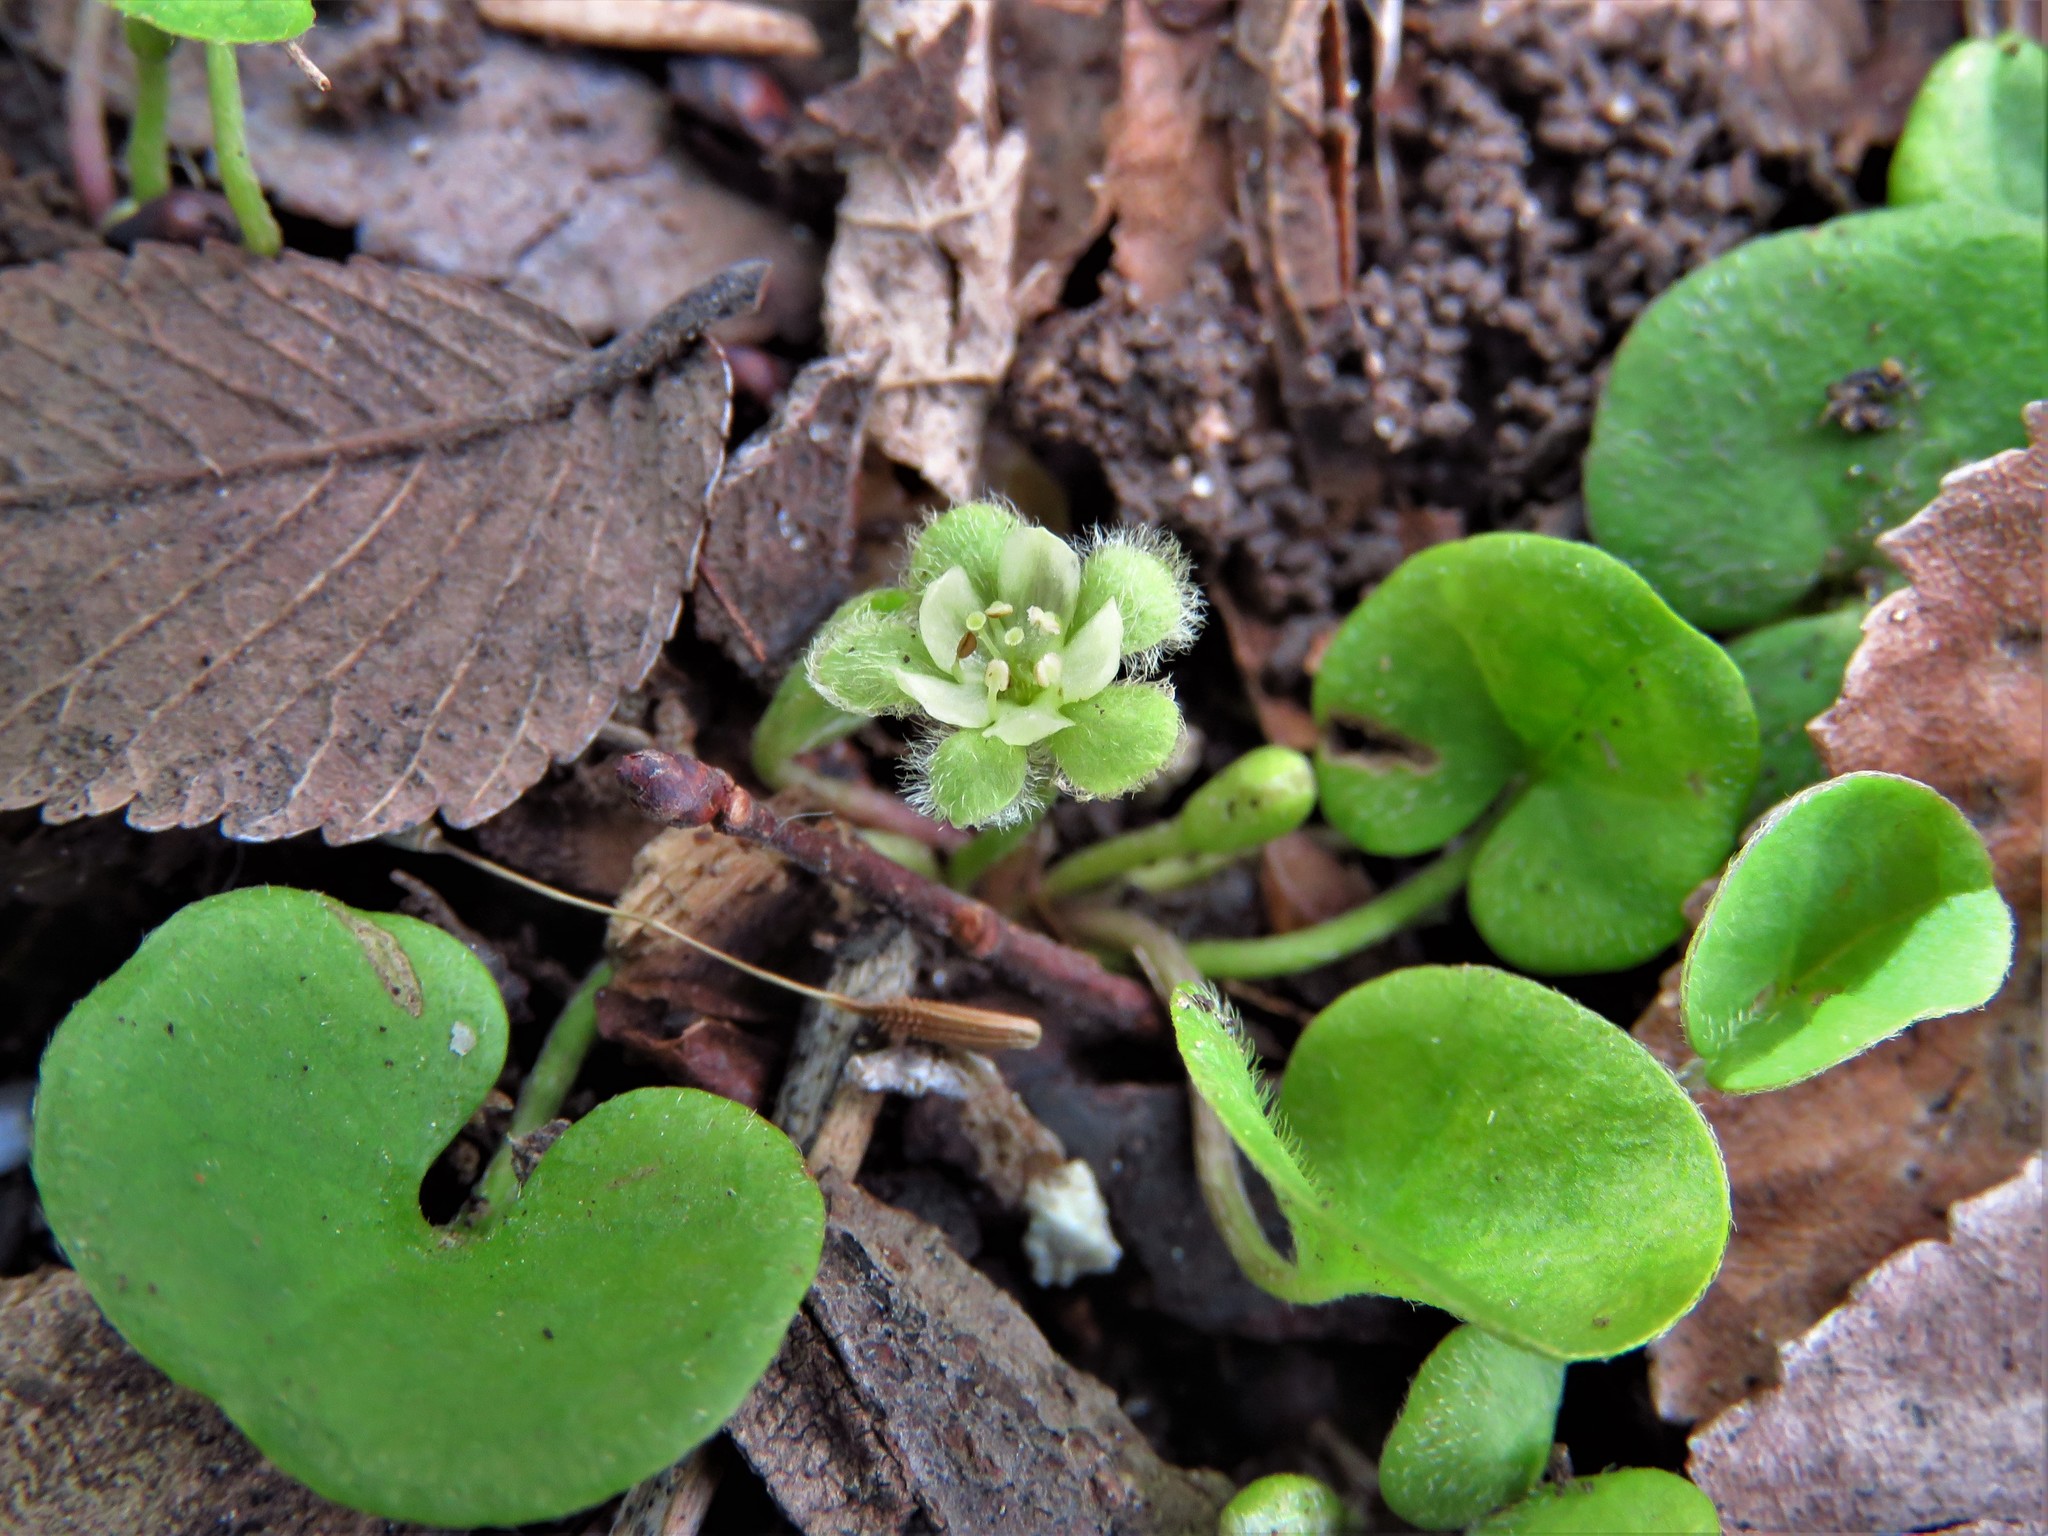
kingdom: Plantae
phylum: Tracheophyta
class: Magnoliopsida
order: Solanales
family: Convolvulaceae
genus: Dichondra
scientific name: Dichondra carolinensis
